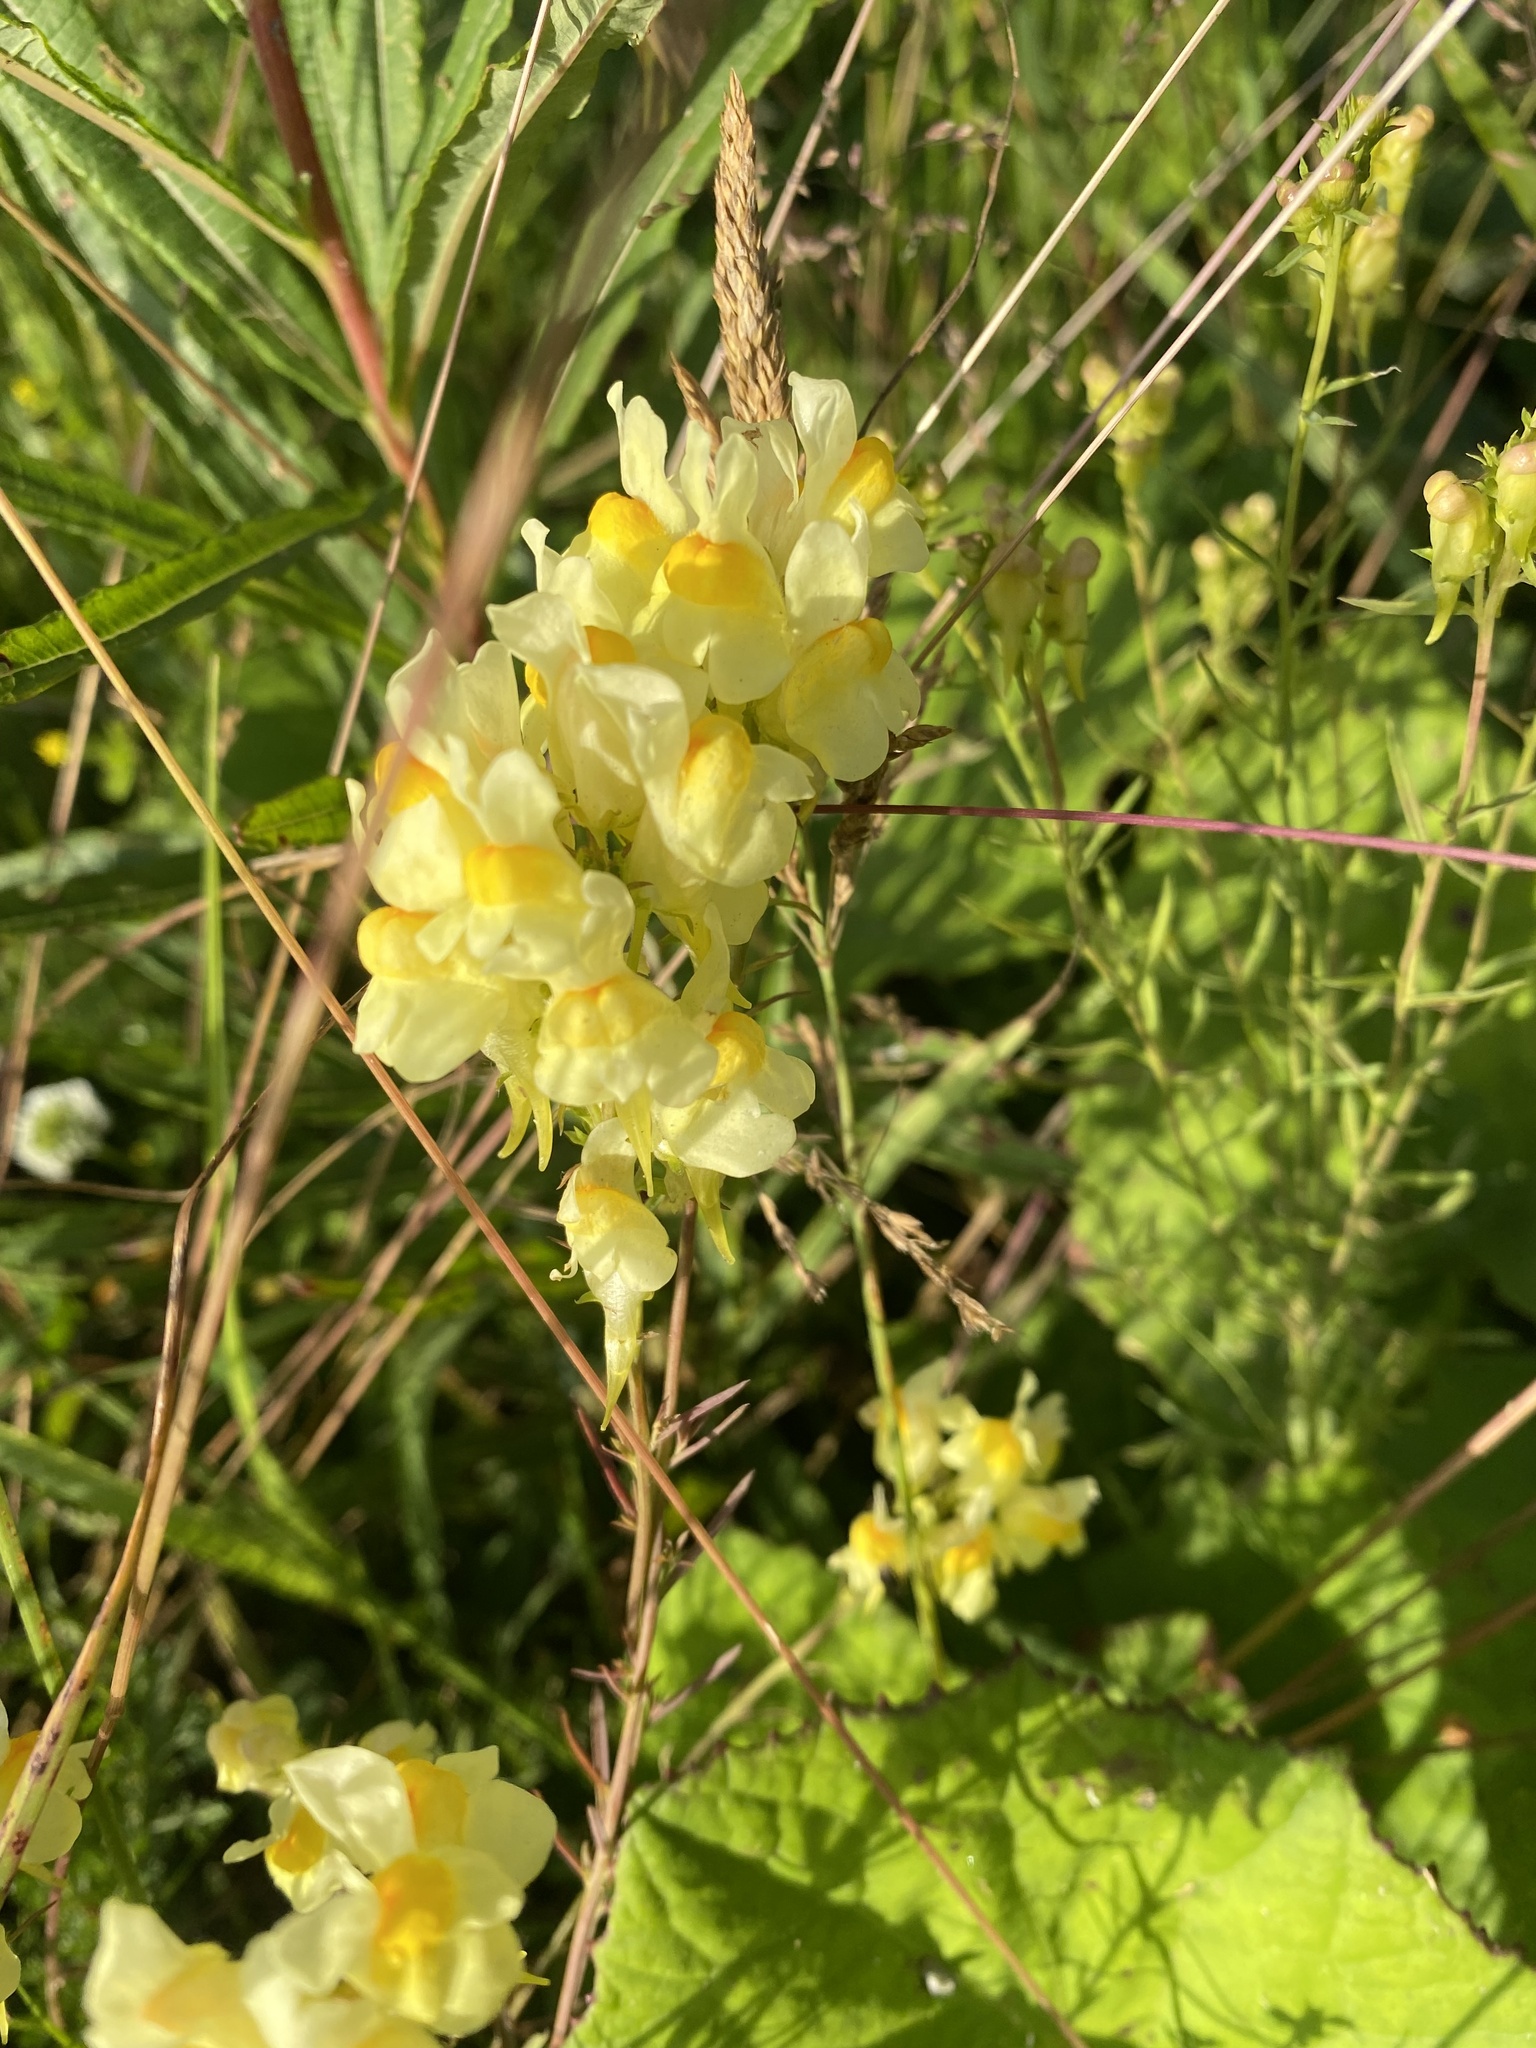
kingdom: Plantae
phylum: Tracheophyta
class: Magnoliopsida
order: Lamiales
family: Plantaginaceae
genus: Linaria
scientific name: Linaria vulgaris
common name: Butter and eggs
